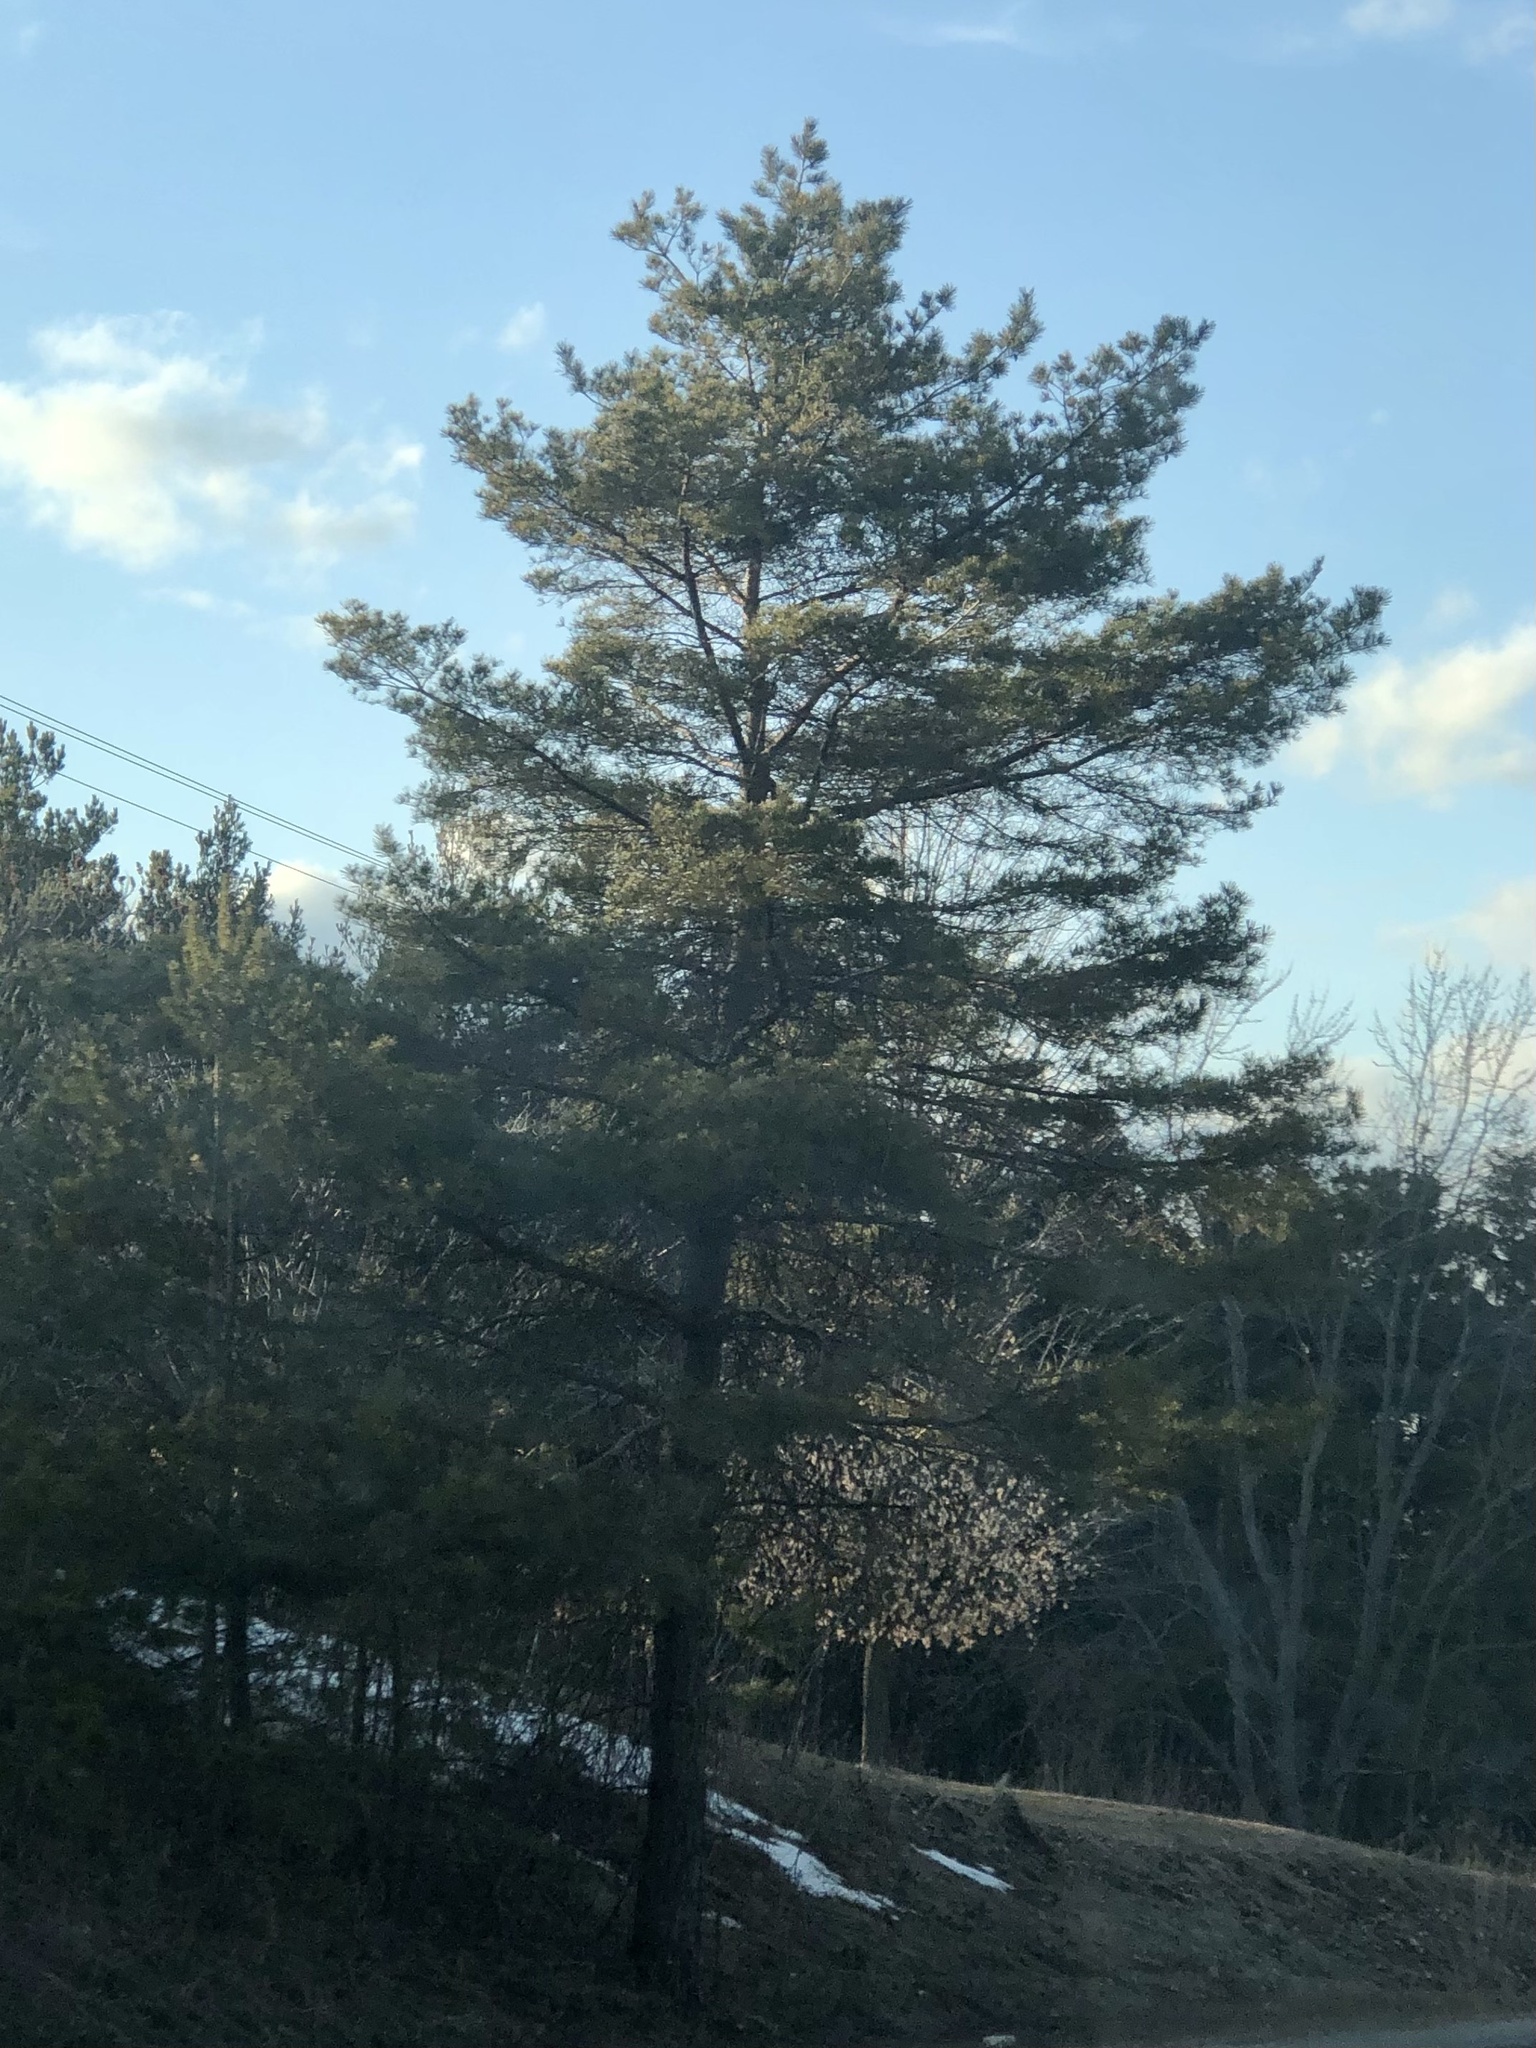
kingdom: Plantae
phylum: Tracheophyta
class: Pinopsida
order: Pinales
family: Pinaceae
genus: Pinus
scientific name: Pinus strobus
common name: Weymouth pine
